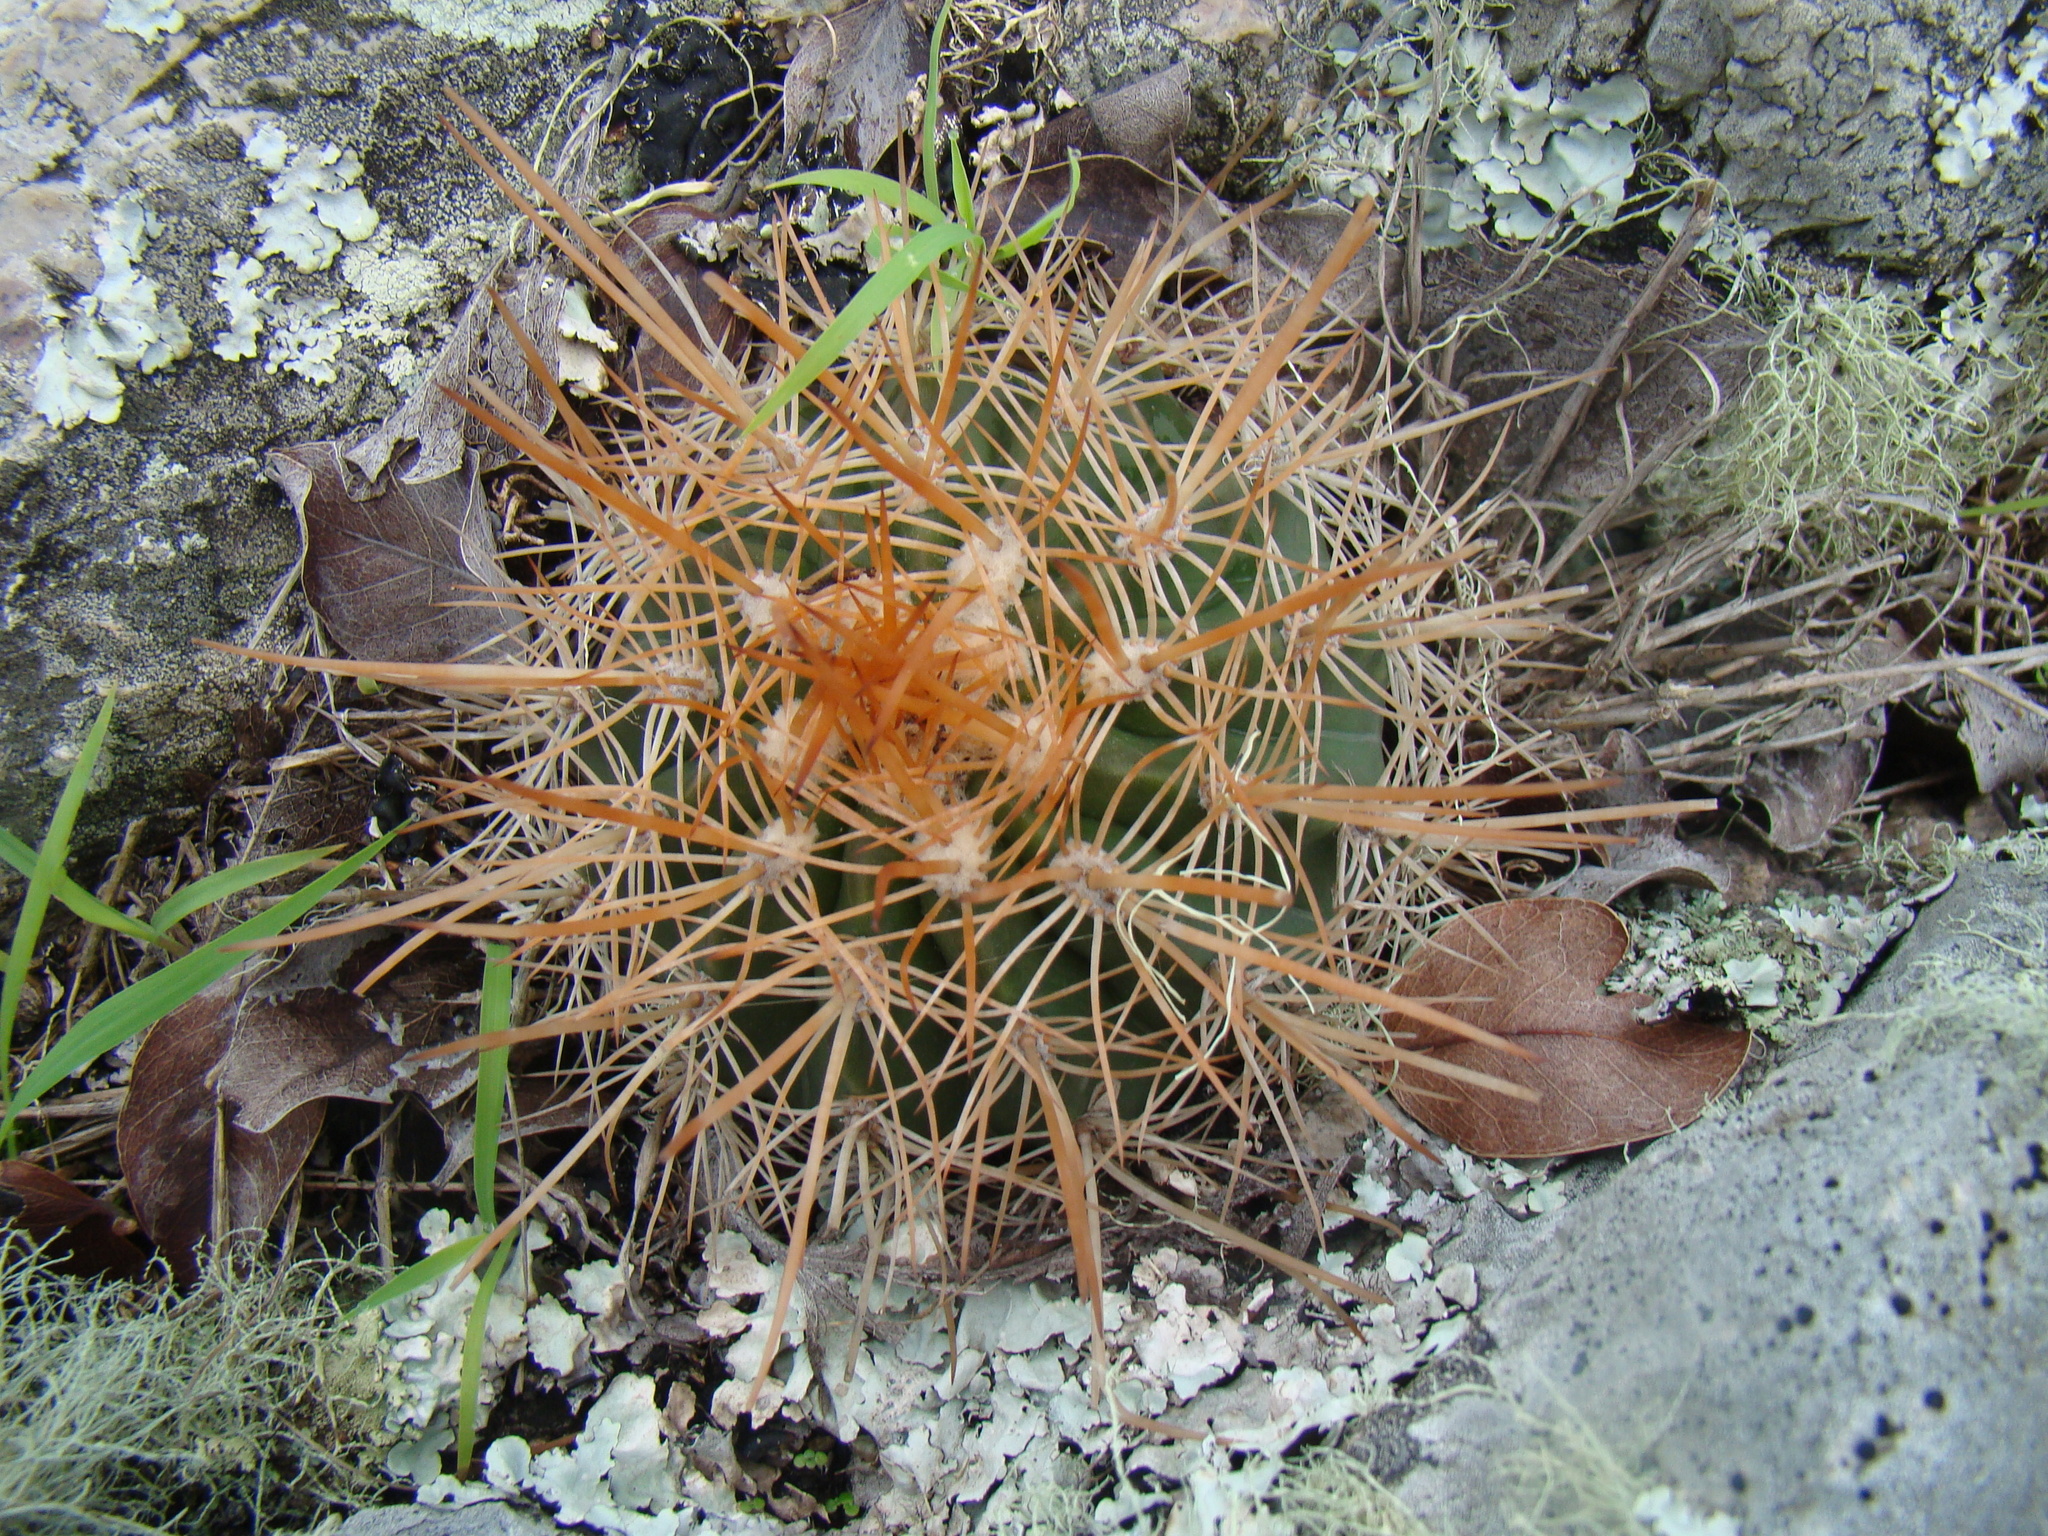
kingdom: Plantae
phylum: Tracheophyta
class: Magnoliopsida
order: Caryophyllales
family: Cactaceae
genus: Melocactus
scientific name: Melocactus macracanthos
